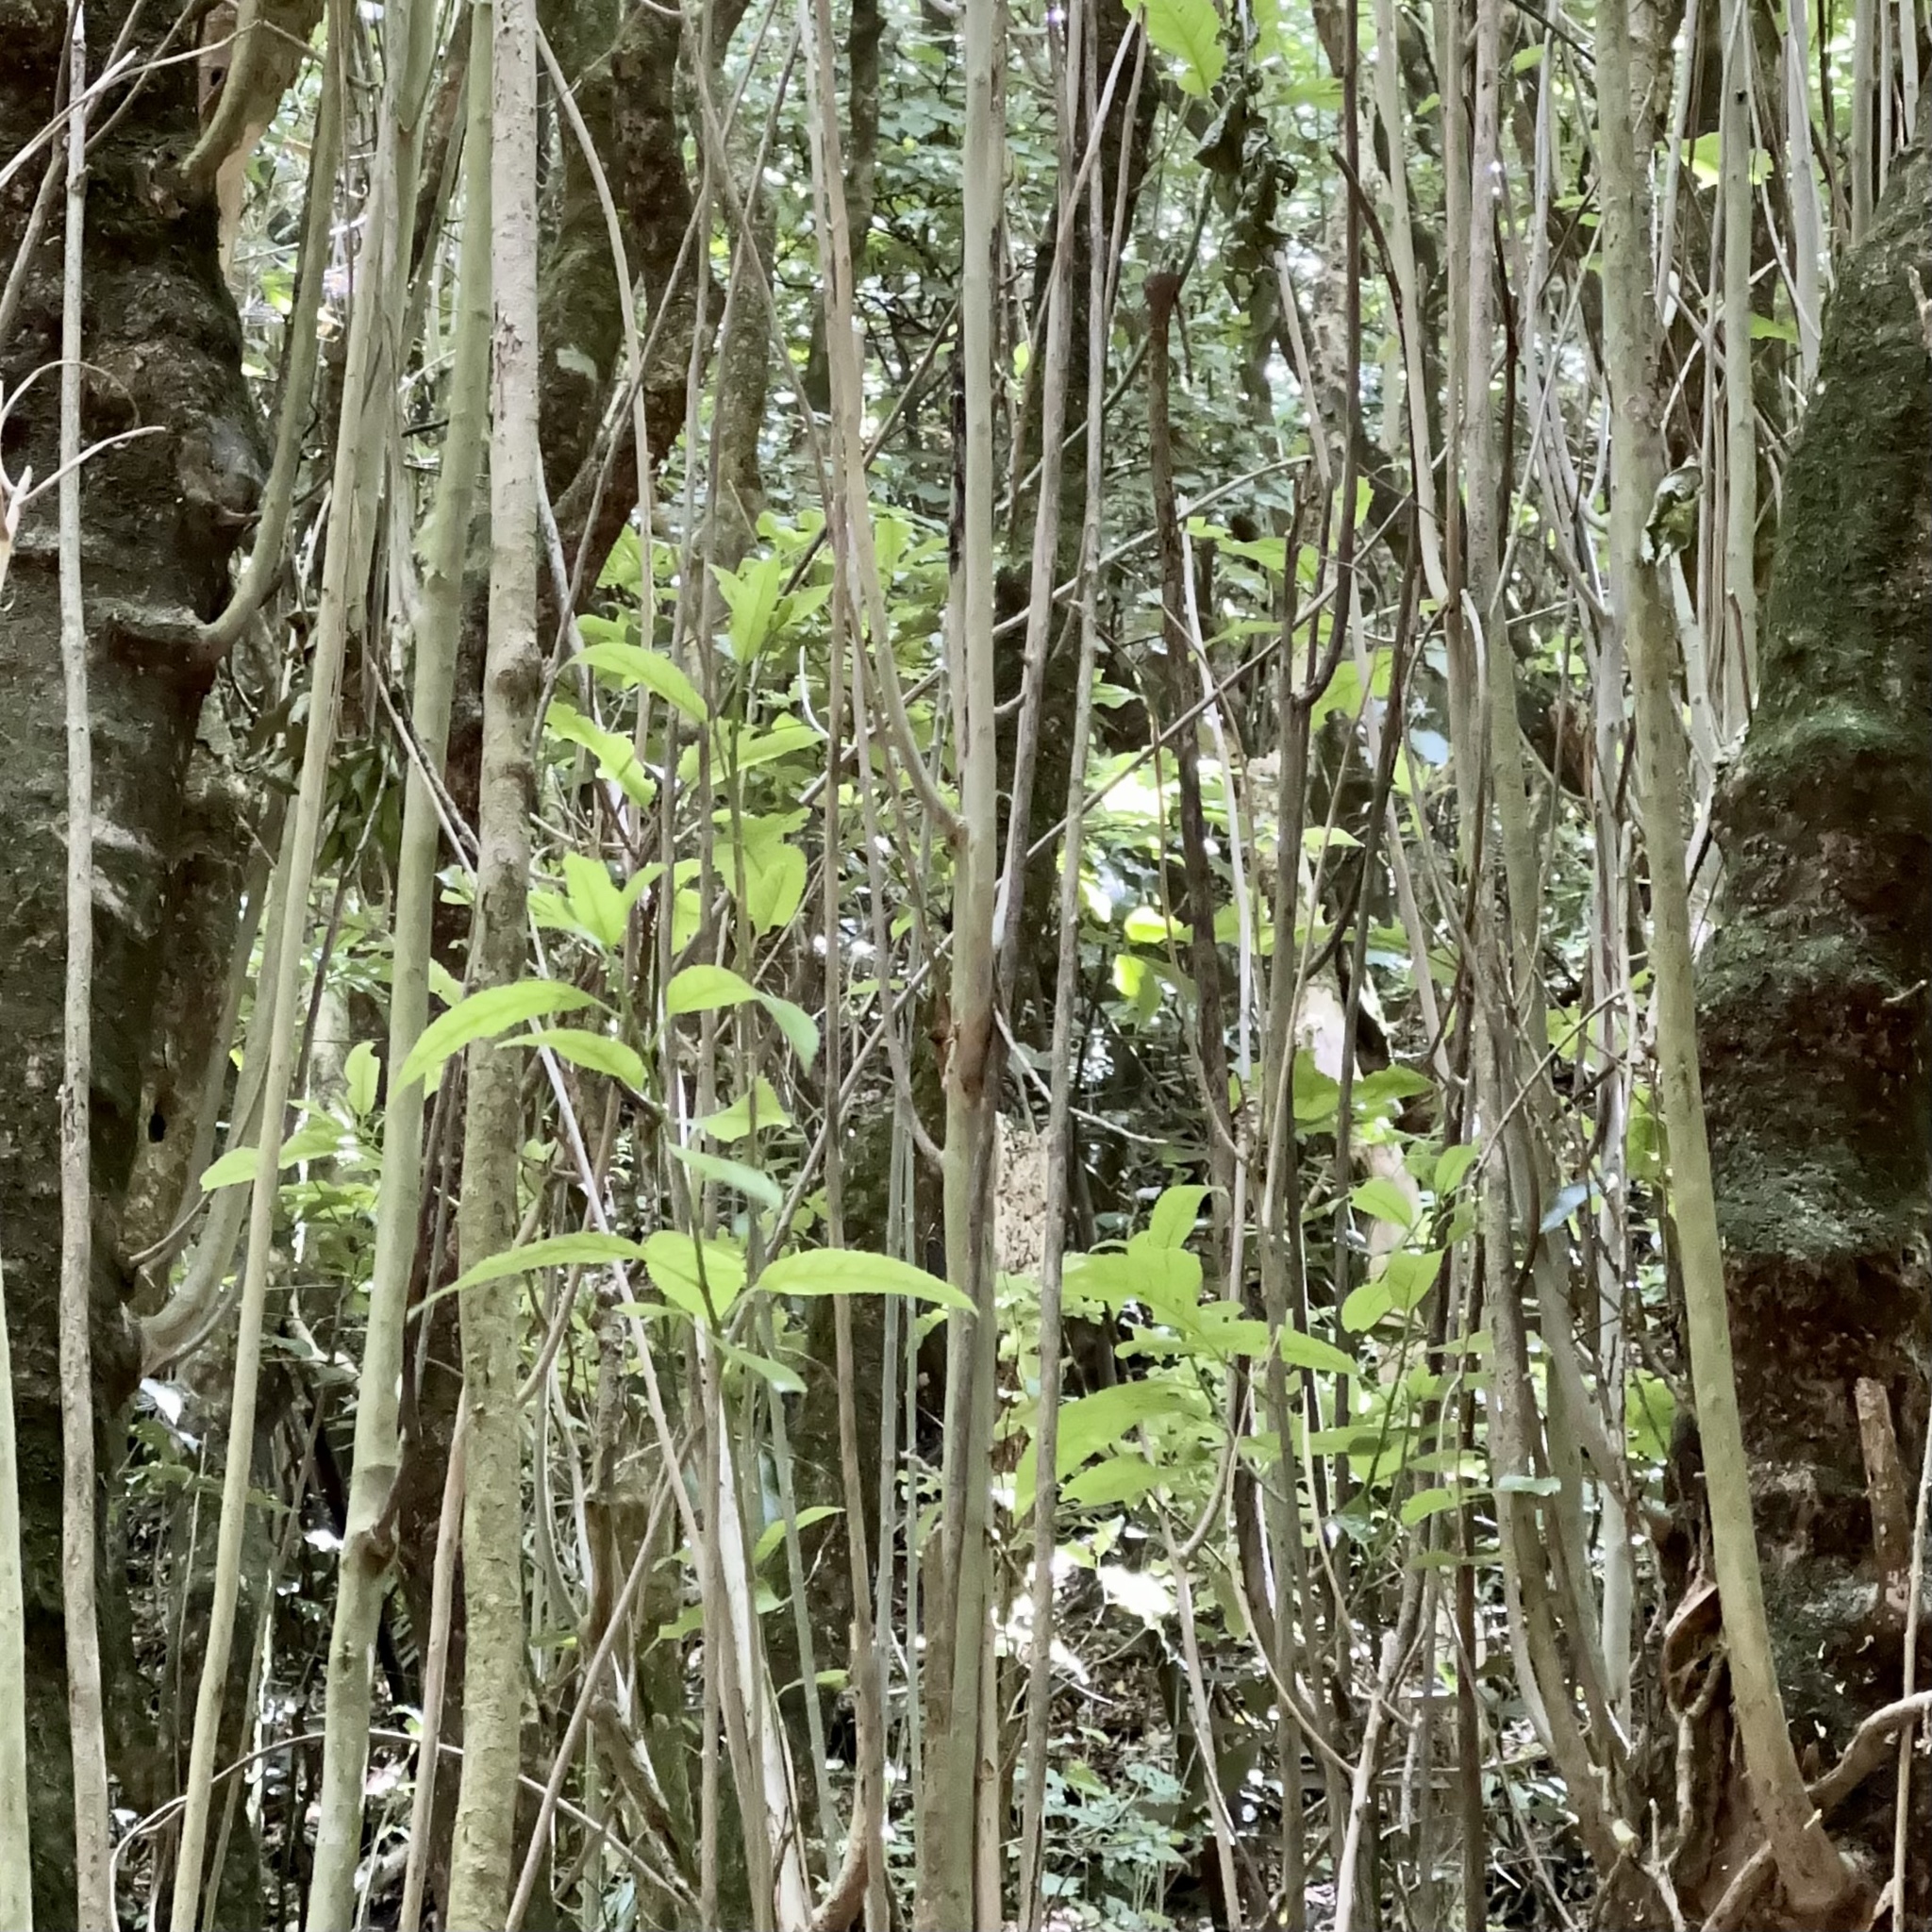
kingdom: Plantae
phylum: Tracheophyta
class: Magnoliopsida
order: Malpighiales
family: Violaceae
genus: Melicytus
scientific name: Melicytus ramiflorus
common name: Mahoe
